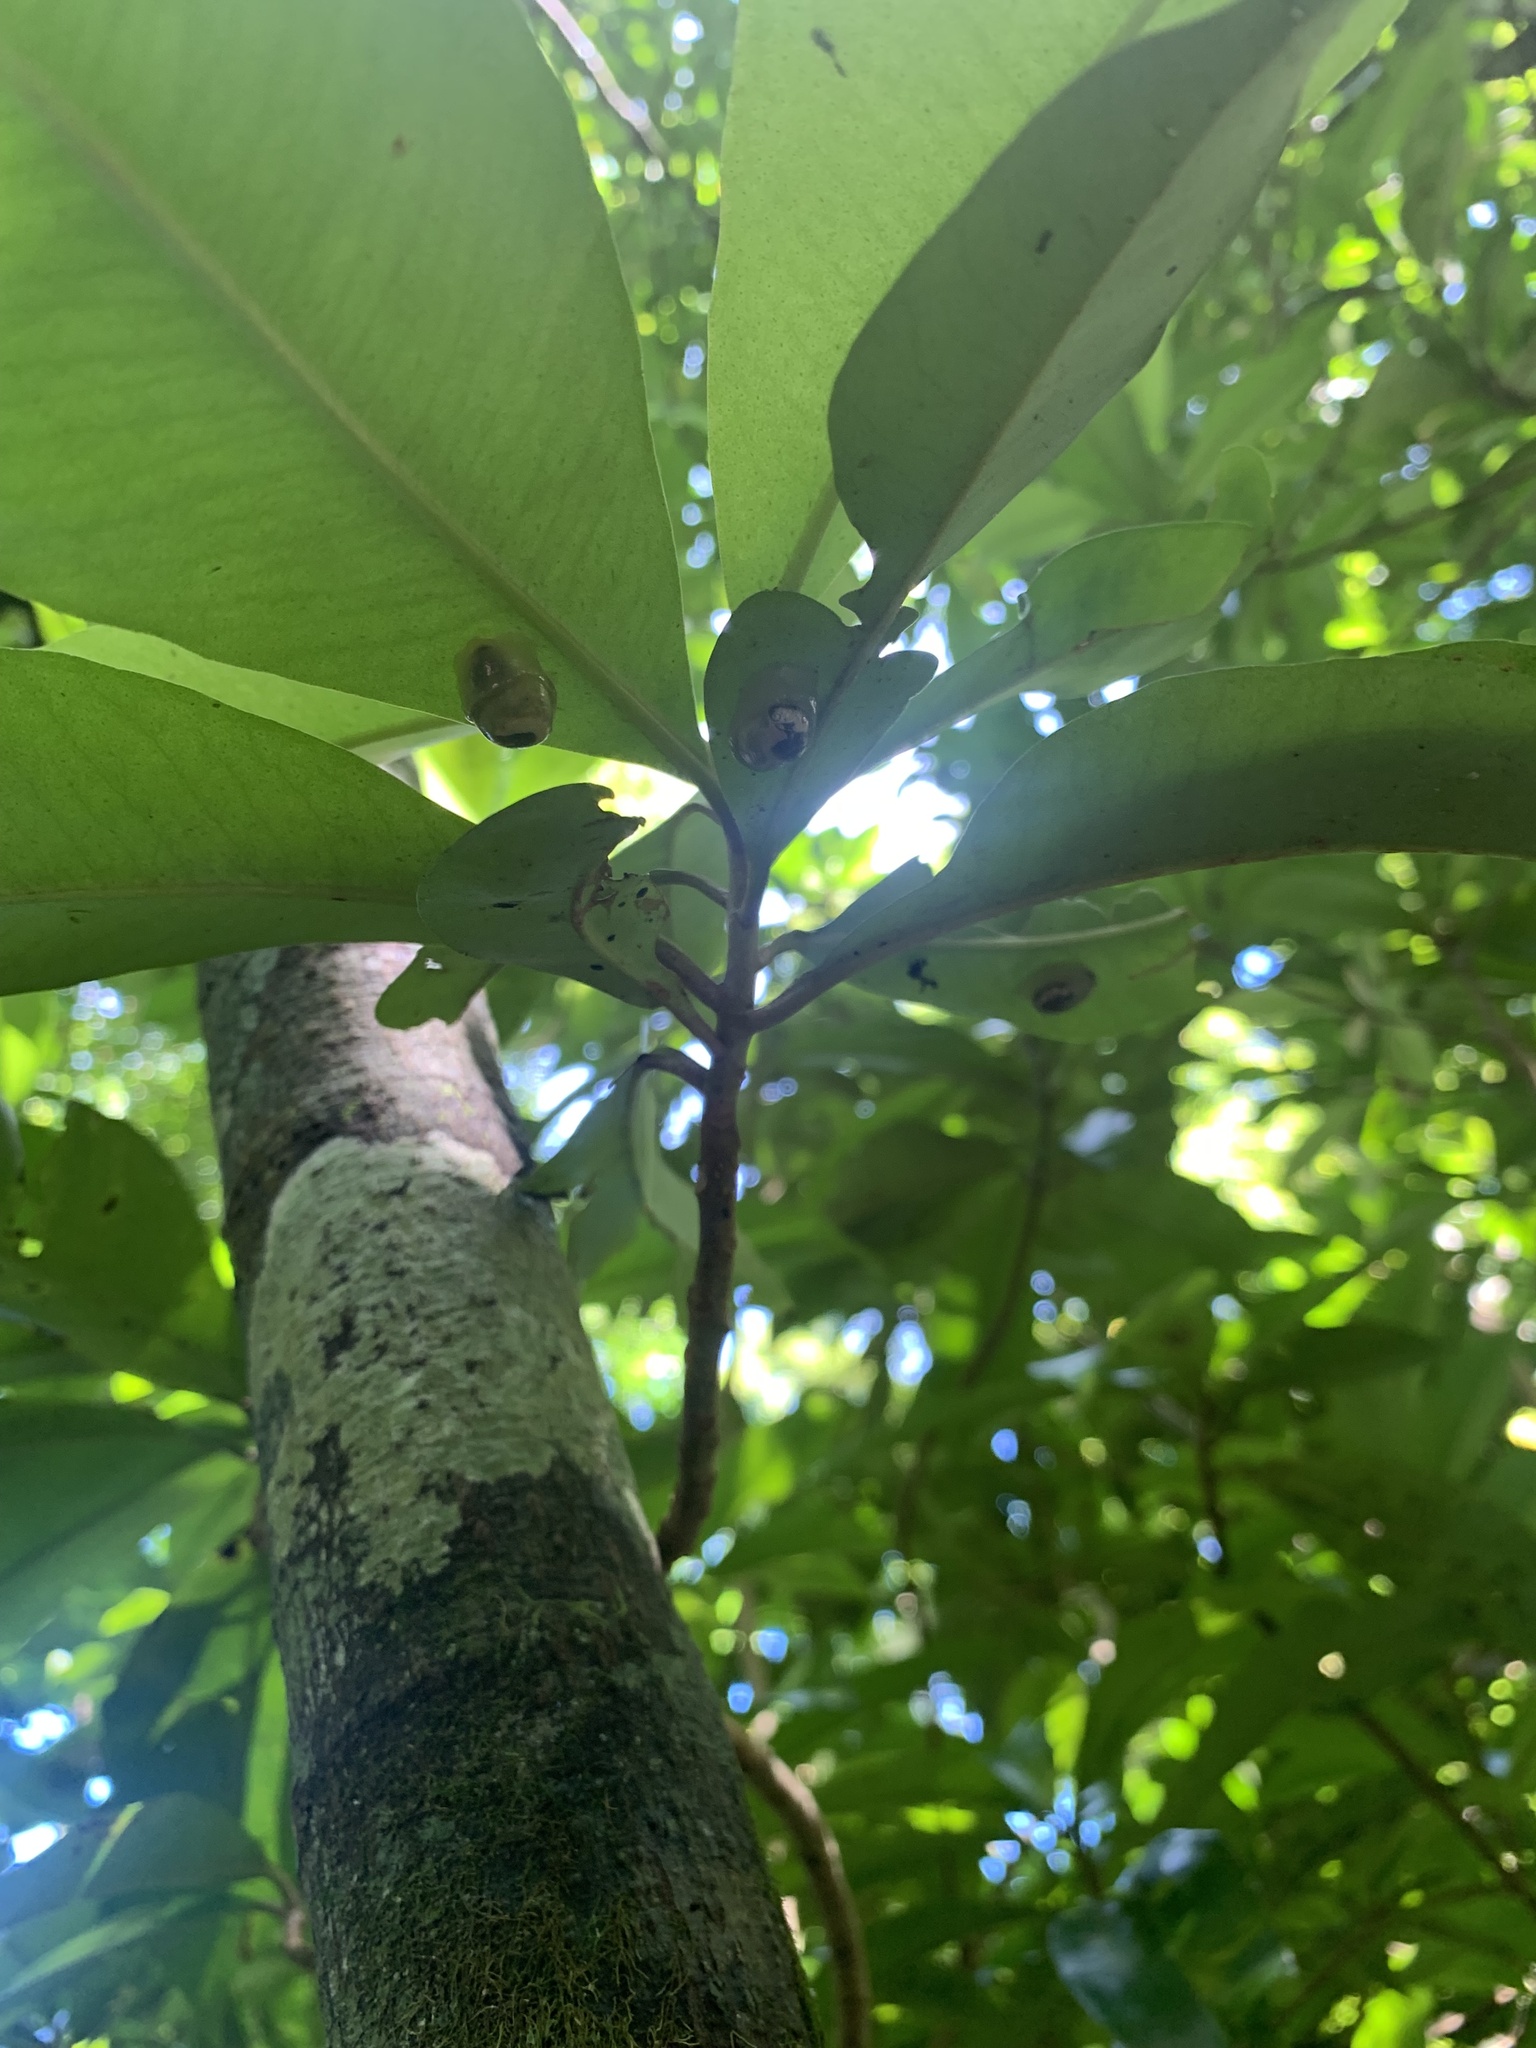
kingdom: Animalia
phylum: Mollusca
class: Gastropoda
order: Stylommatophora
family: Succineidae
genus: Boninosuccinea
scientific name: Boninosuccinea ogasawarae
